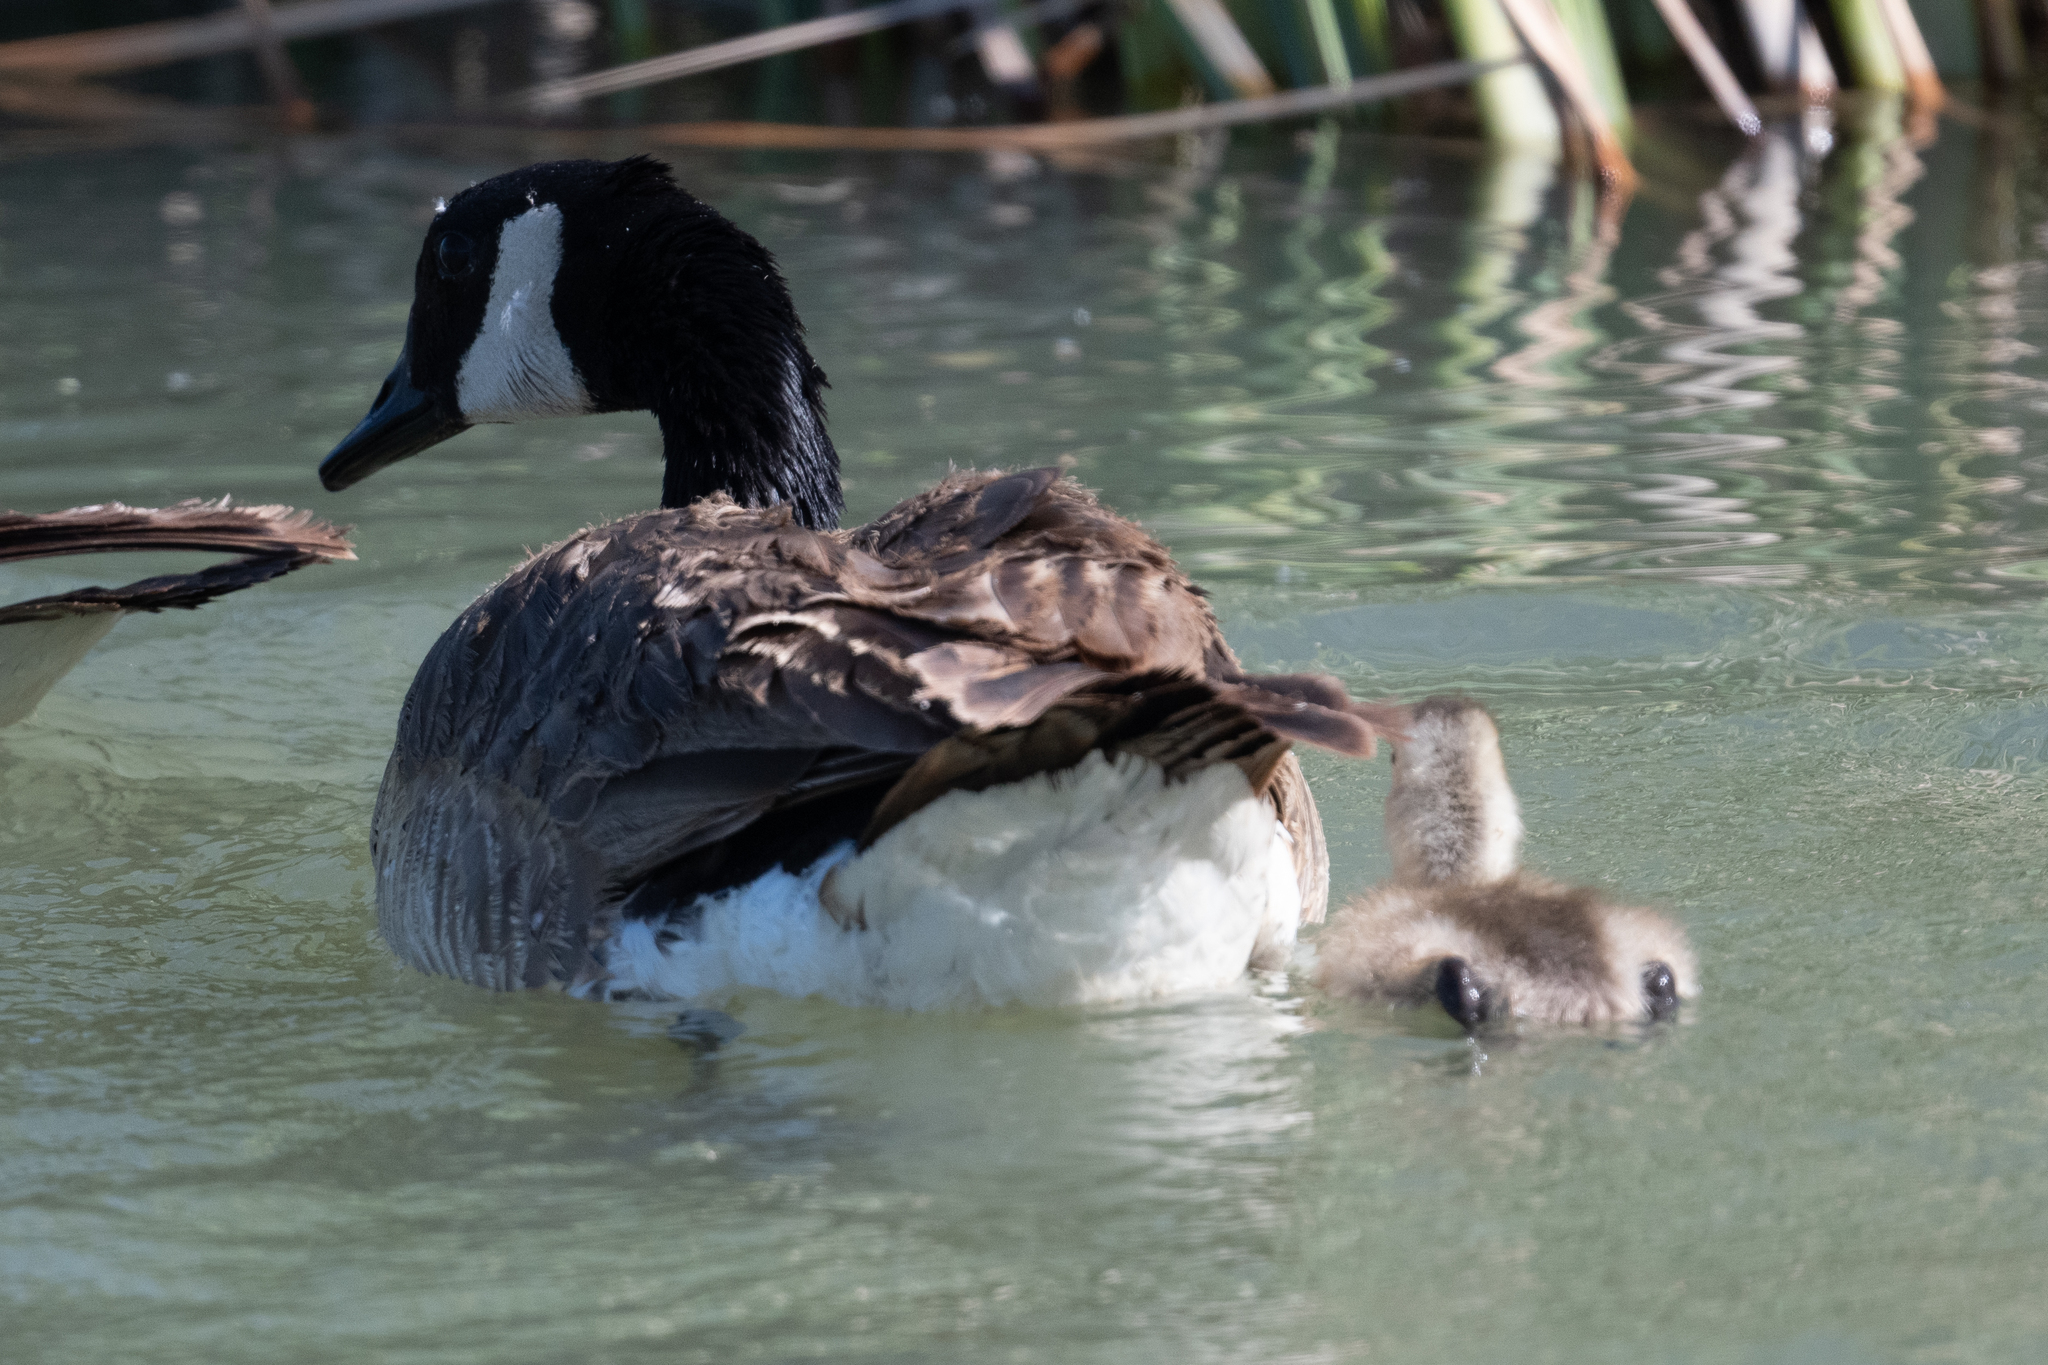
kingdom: Animalia
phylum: Chordata
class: Aves
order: Anseriformes
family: Anatidae
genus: Branta
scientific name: Branta canadensis
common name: Canada goose
